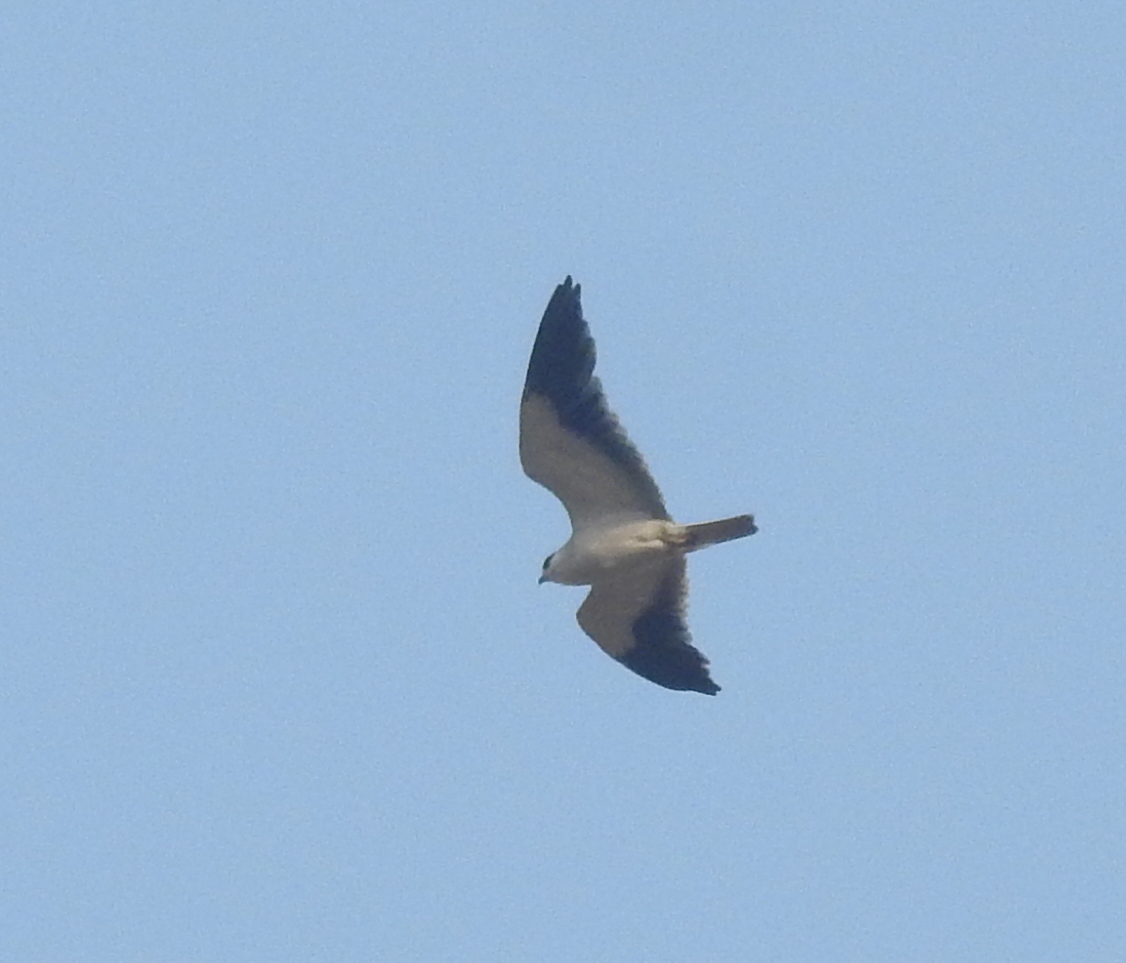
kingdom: Animalia
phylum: Chordata
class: Aves
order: Accipitriformes
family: Accipitridae
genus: Elanus
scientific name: Elanus caeruleus
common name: Black-winged kite
